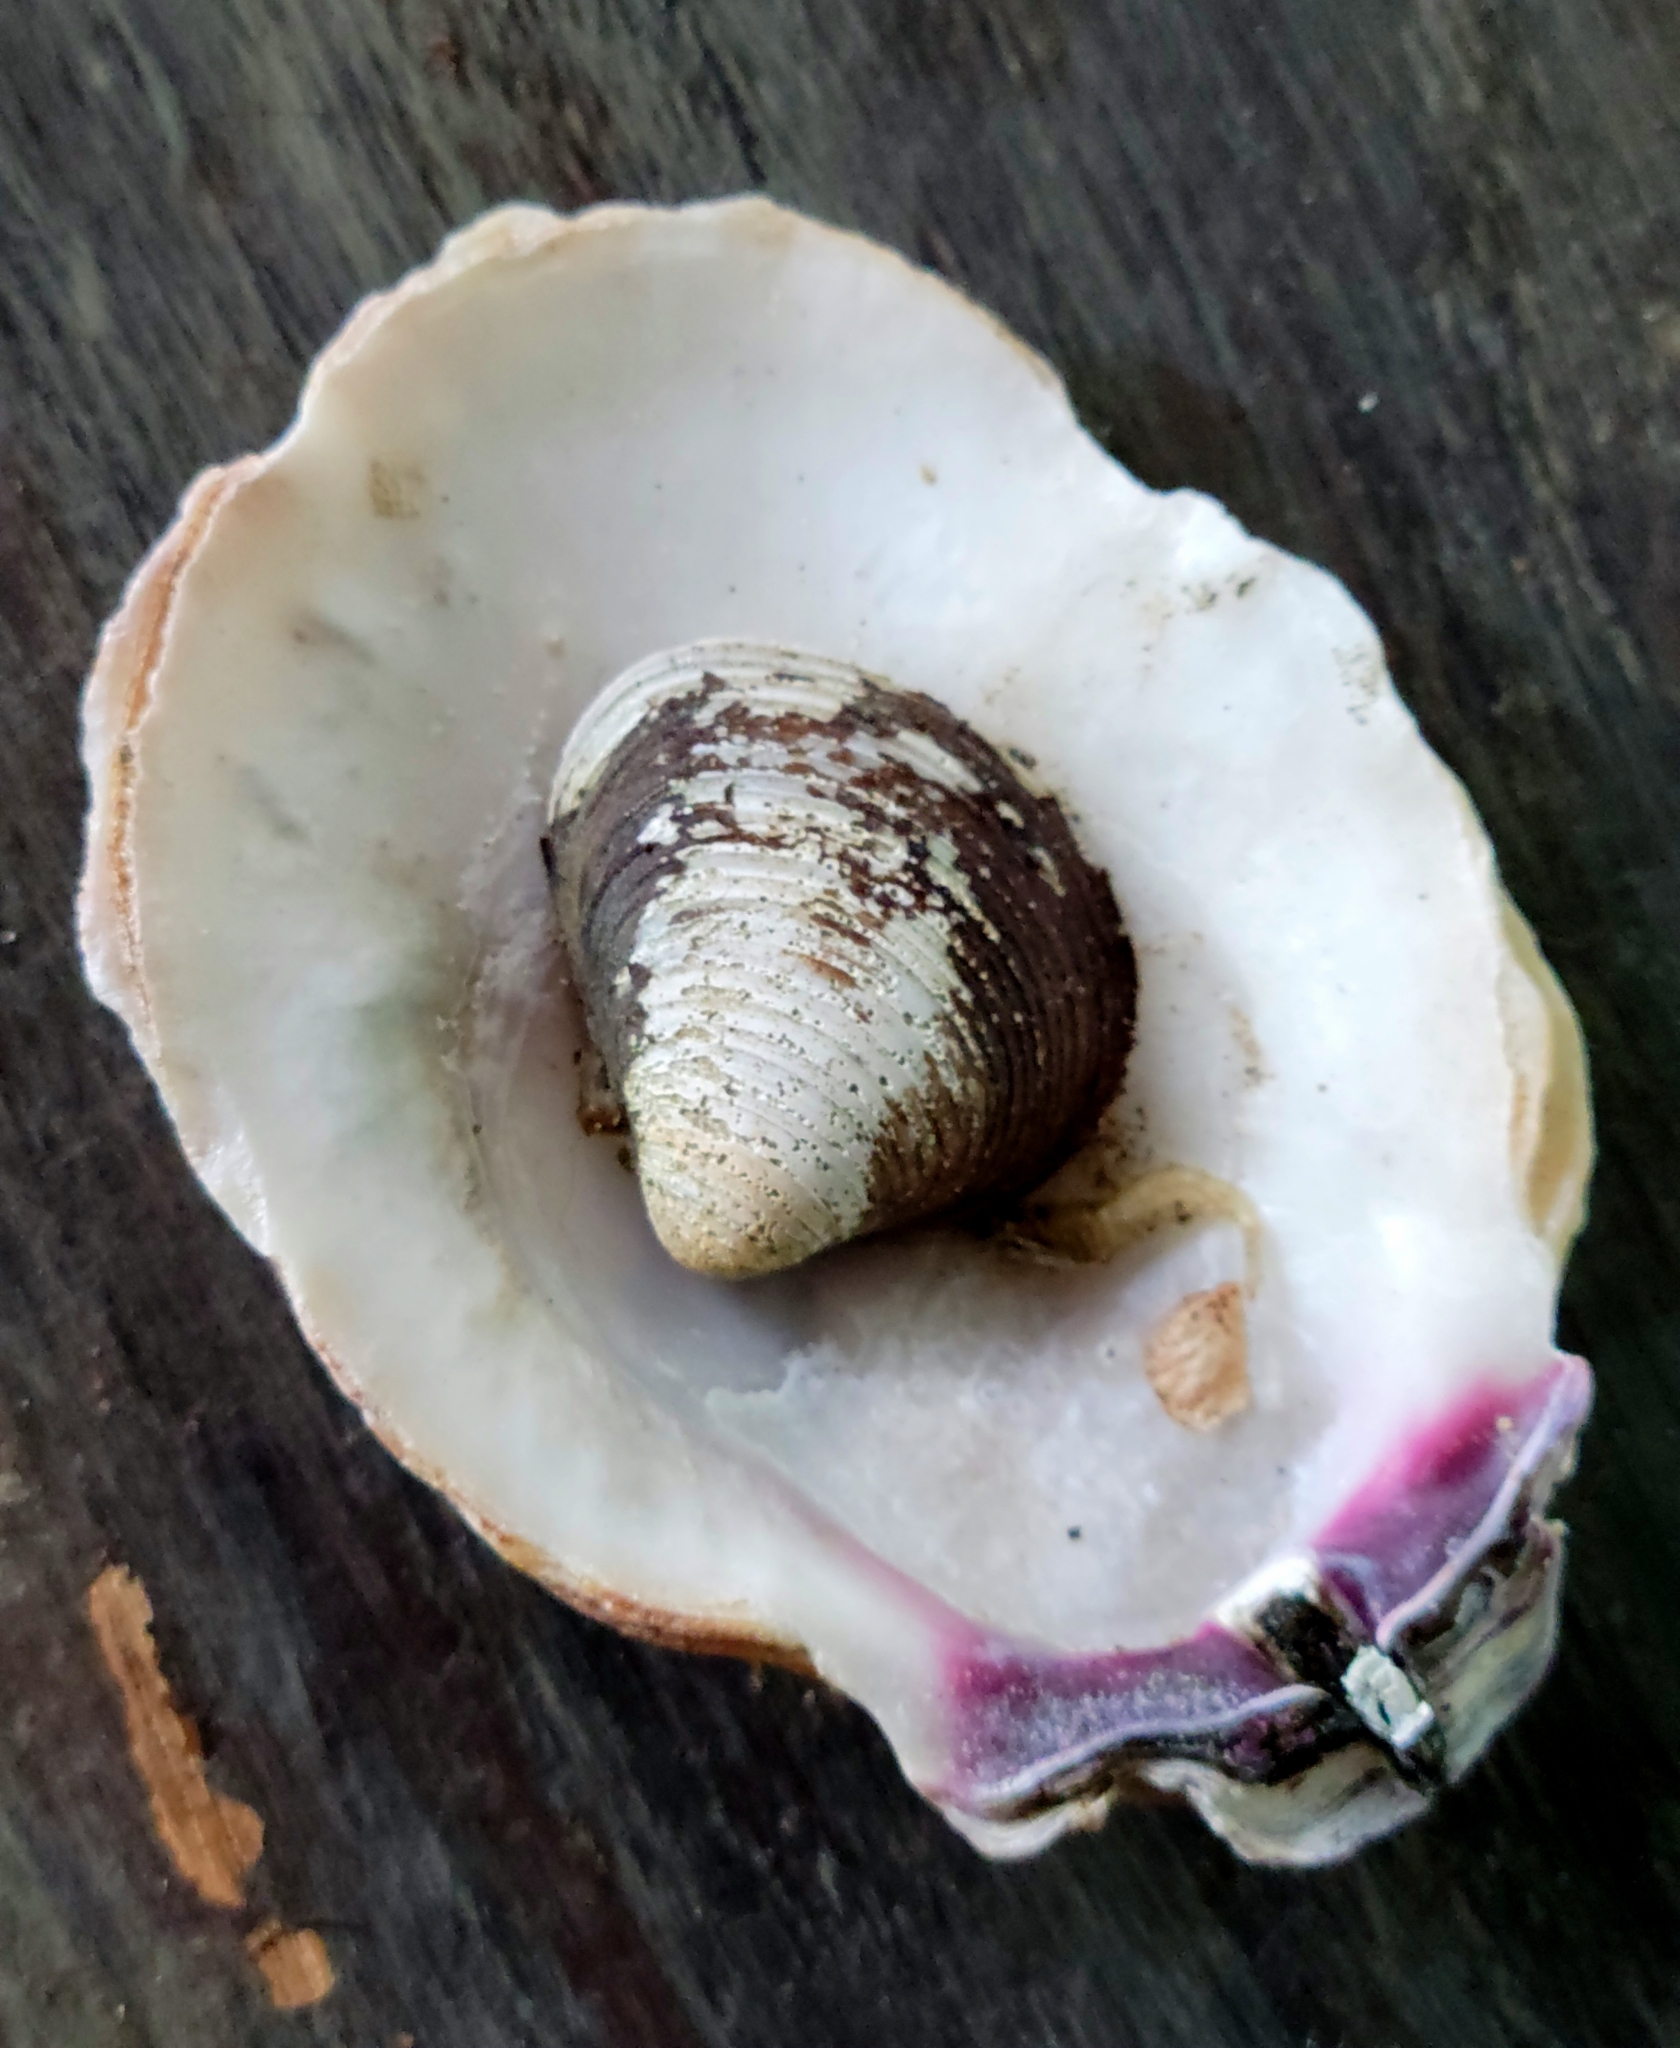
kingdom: Animalia
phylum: Mollusca
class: Bivalvia
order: Venerida
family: Cyrenidae
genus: Corbicula
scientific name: Corbicula fluminea
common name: Asian clam
